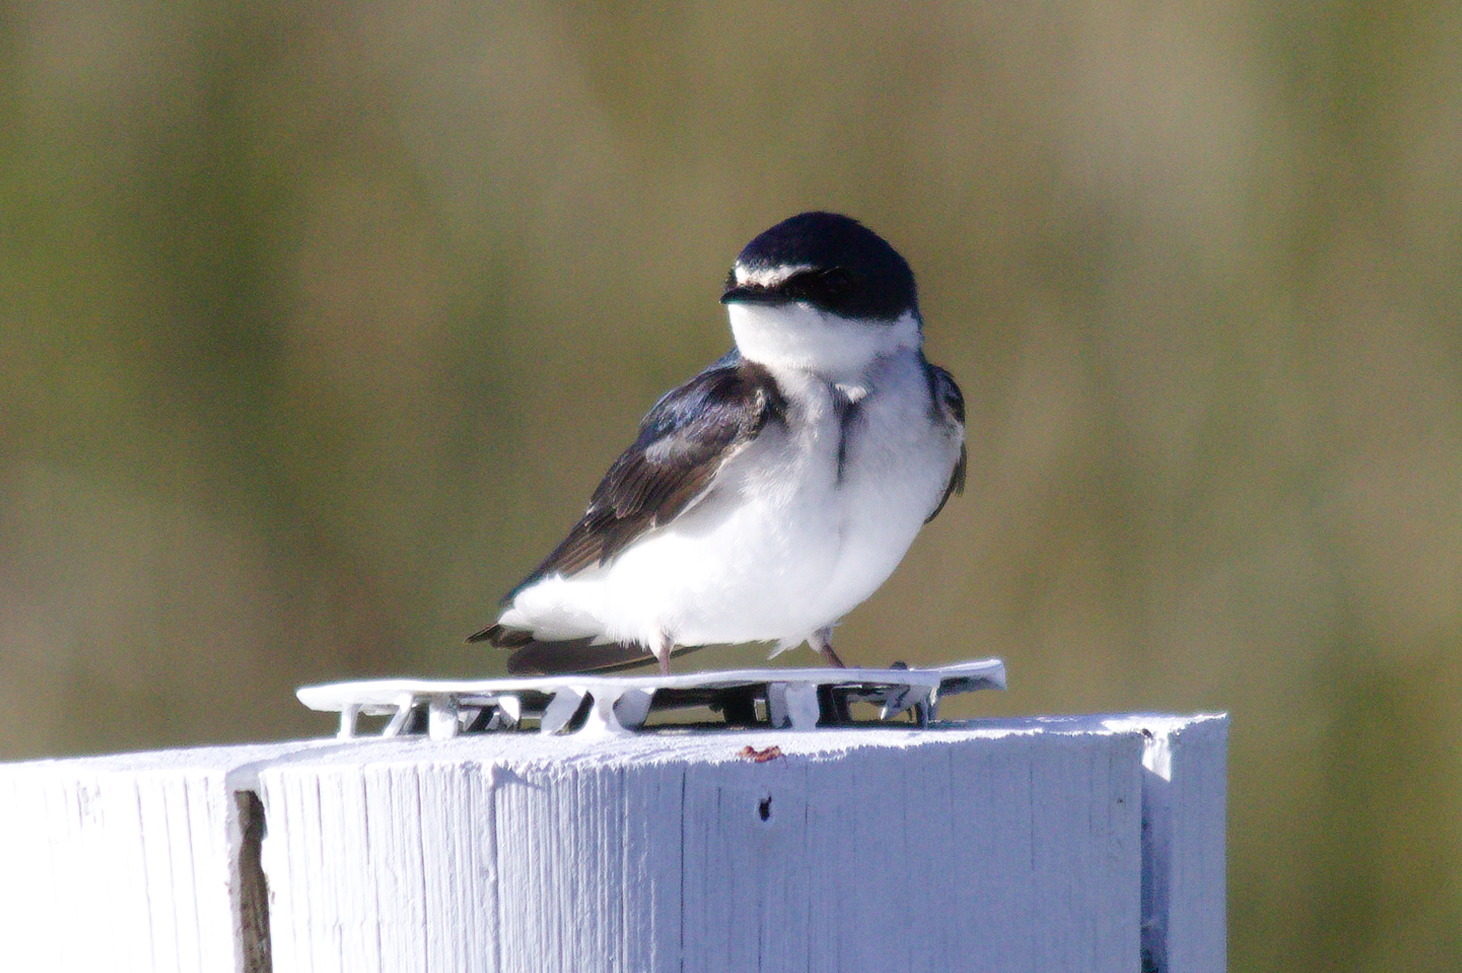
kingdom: Animalia
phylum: Chordata
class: Aves
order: Passeriformes
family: Hirundinidae
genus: Tachycineta
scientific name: Tachycineta leucorrhoa
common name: White-rumped swallow
